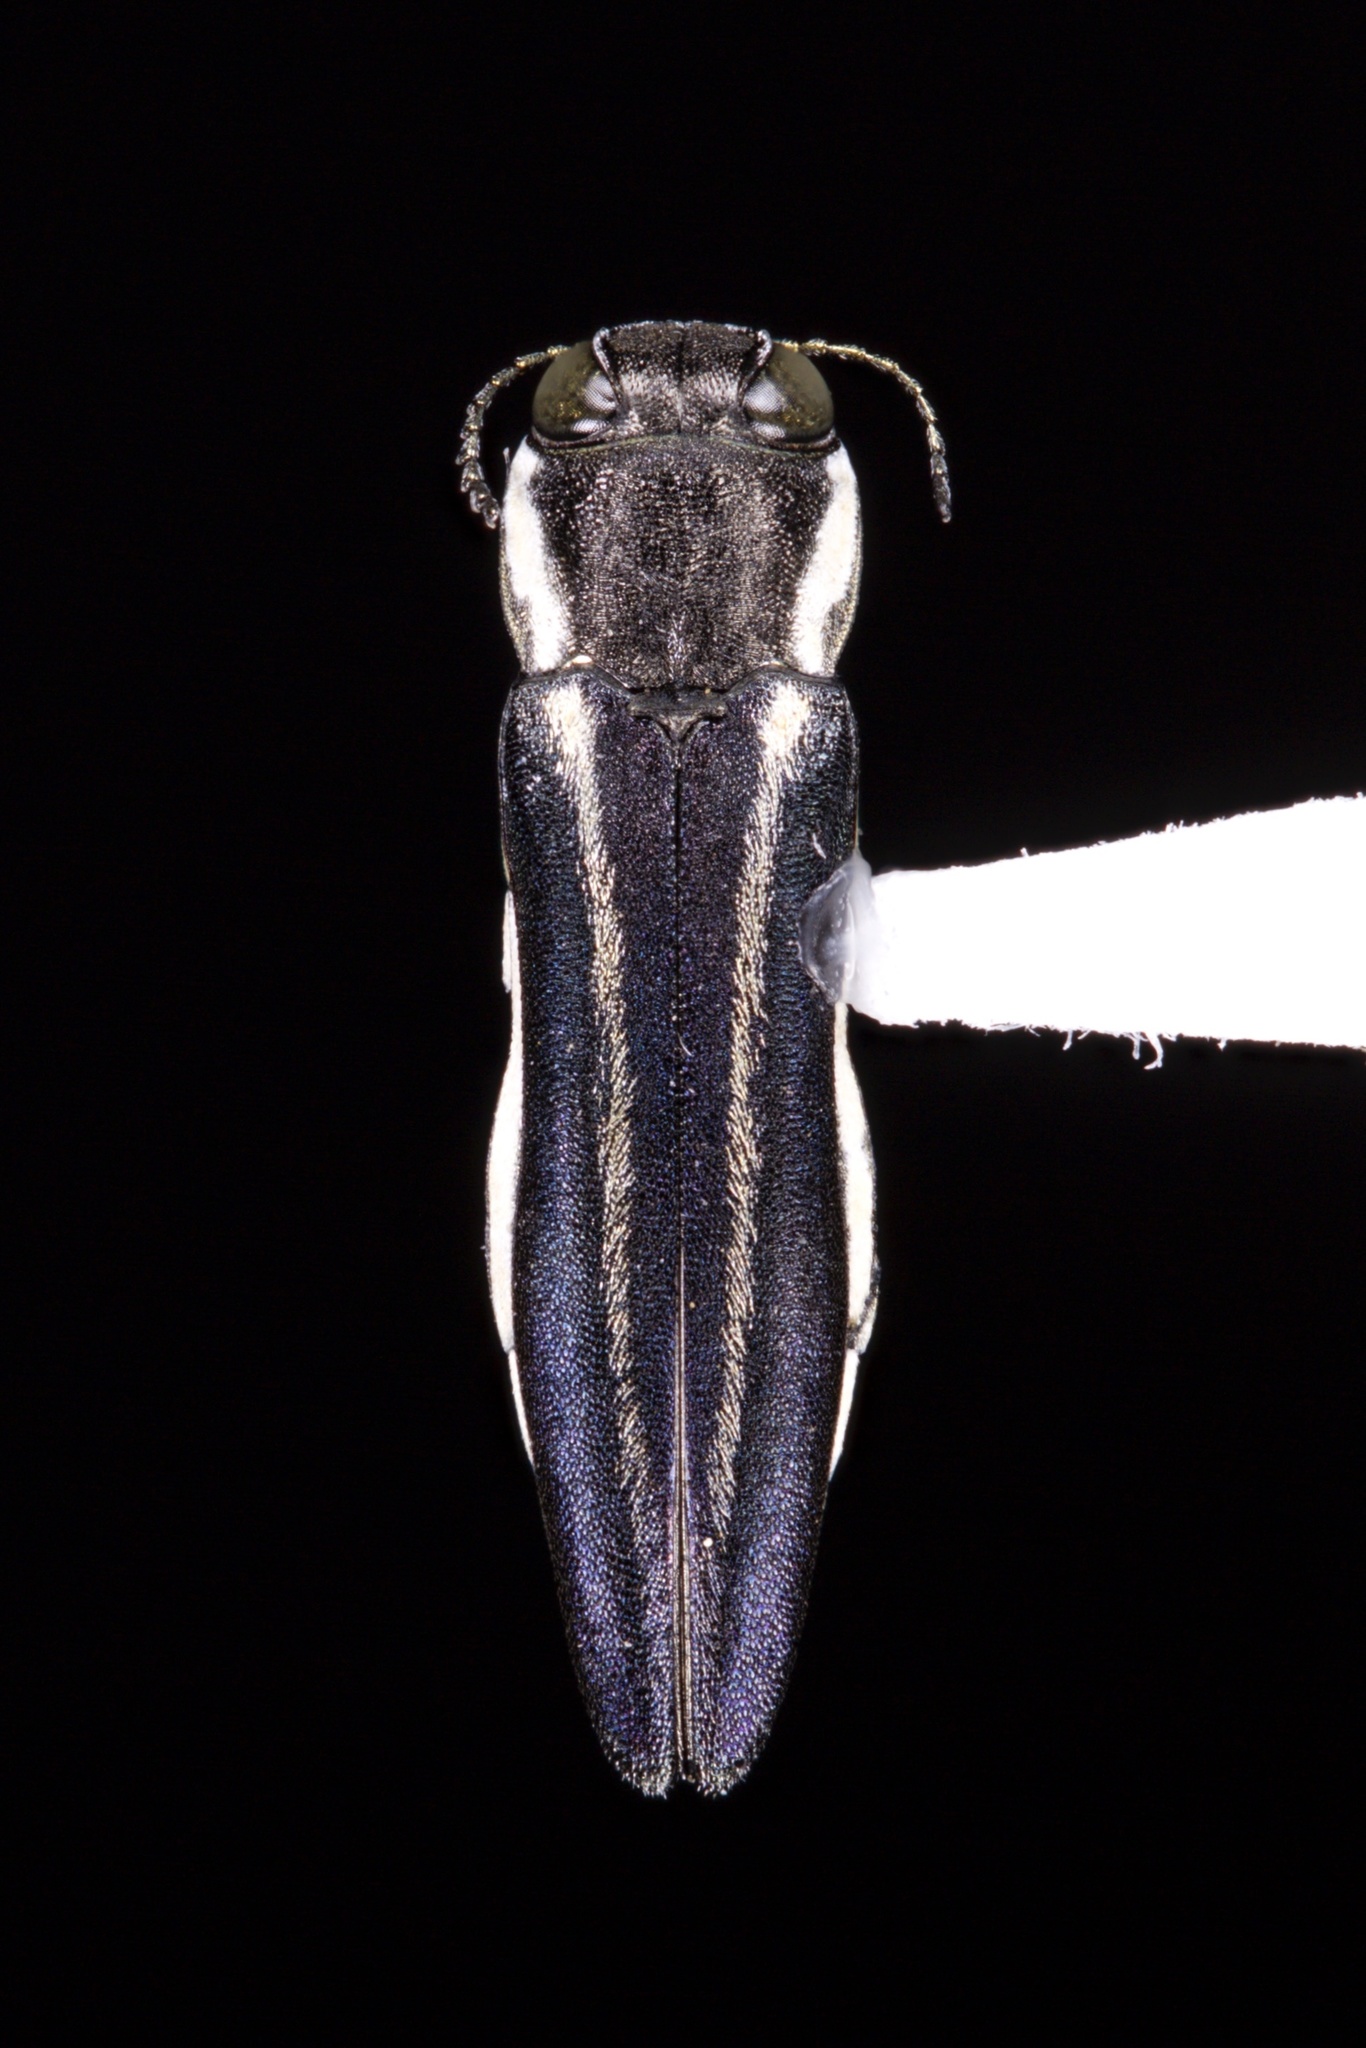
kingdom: Animalia
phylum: Arthropoda
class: Insecta
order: Coleoptera
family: Buprestidae
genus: Agrilus
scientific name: Agrilus bilineatus
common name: Two-lined chestnut borer
